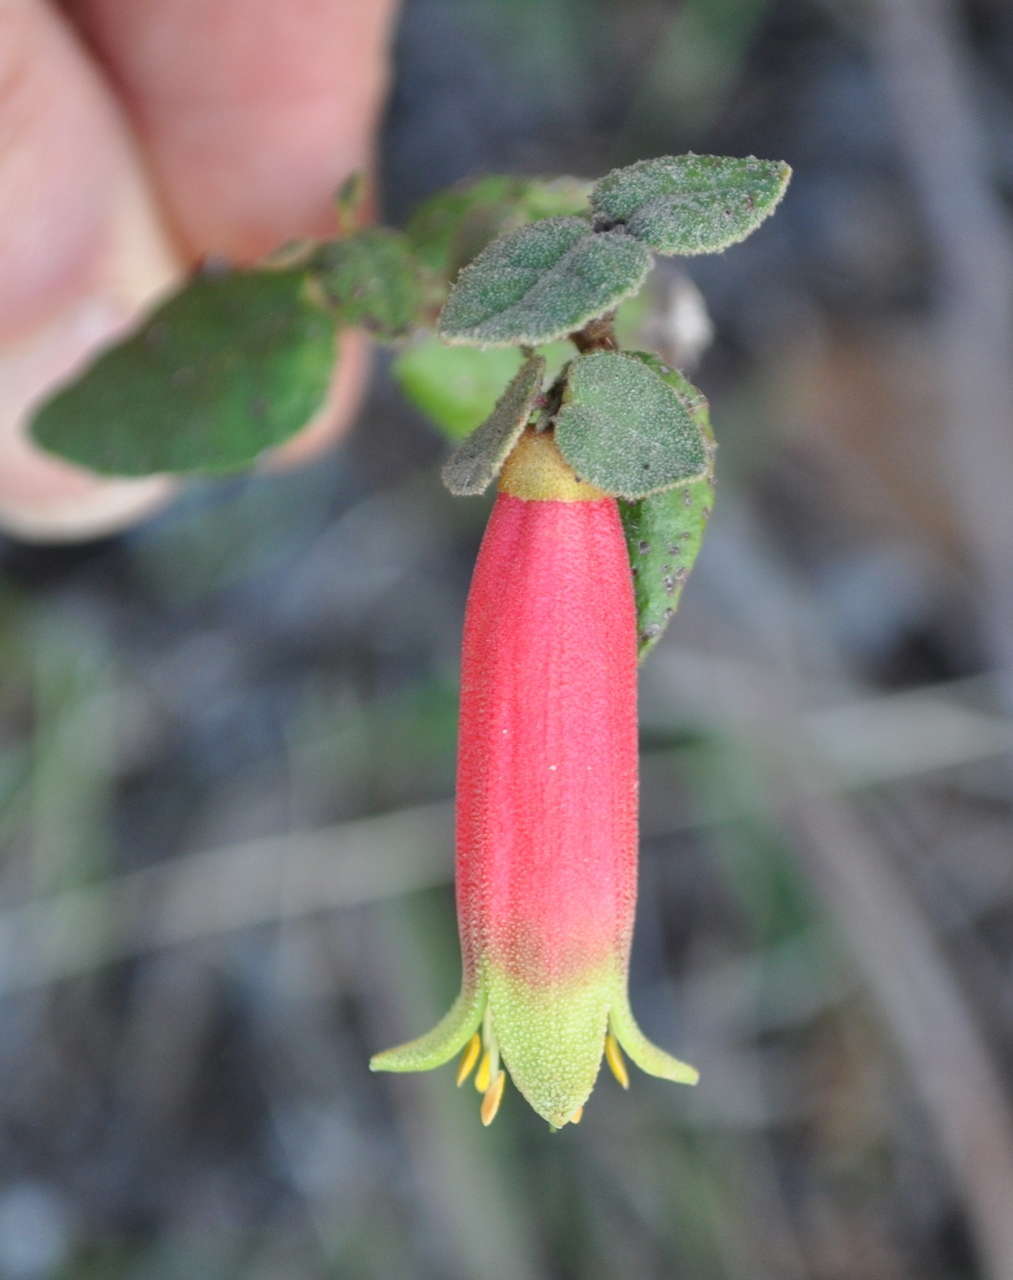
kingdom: Plantae
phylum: Tracheophyta
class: Magnoliopsida
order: Sapindales
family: Rutaceae
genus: Correa
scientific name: Correa reflexa
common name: Common correa
